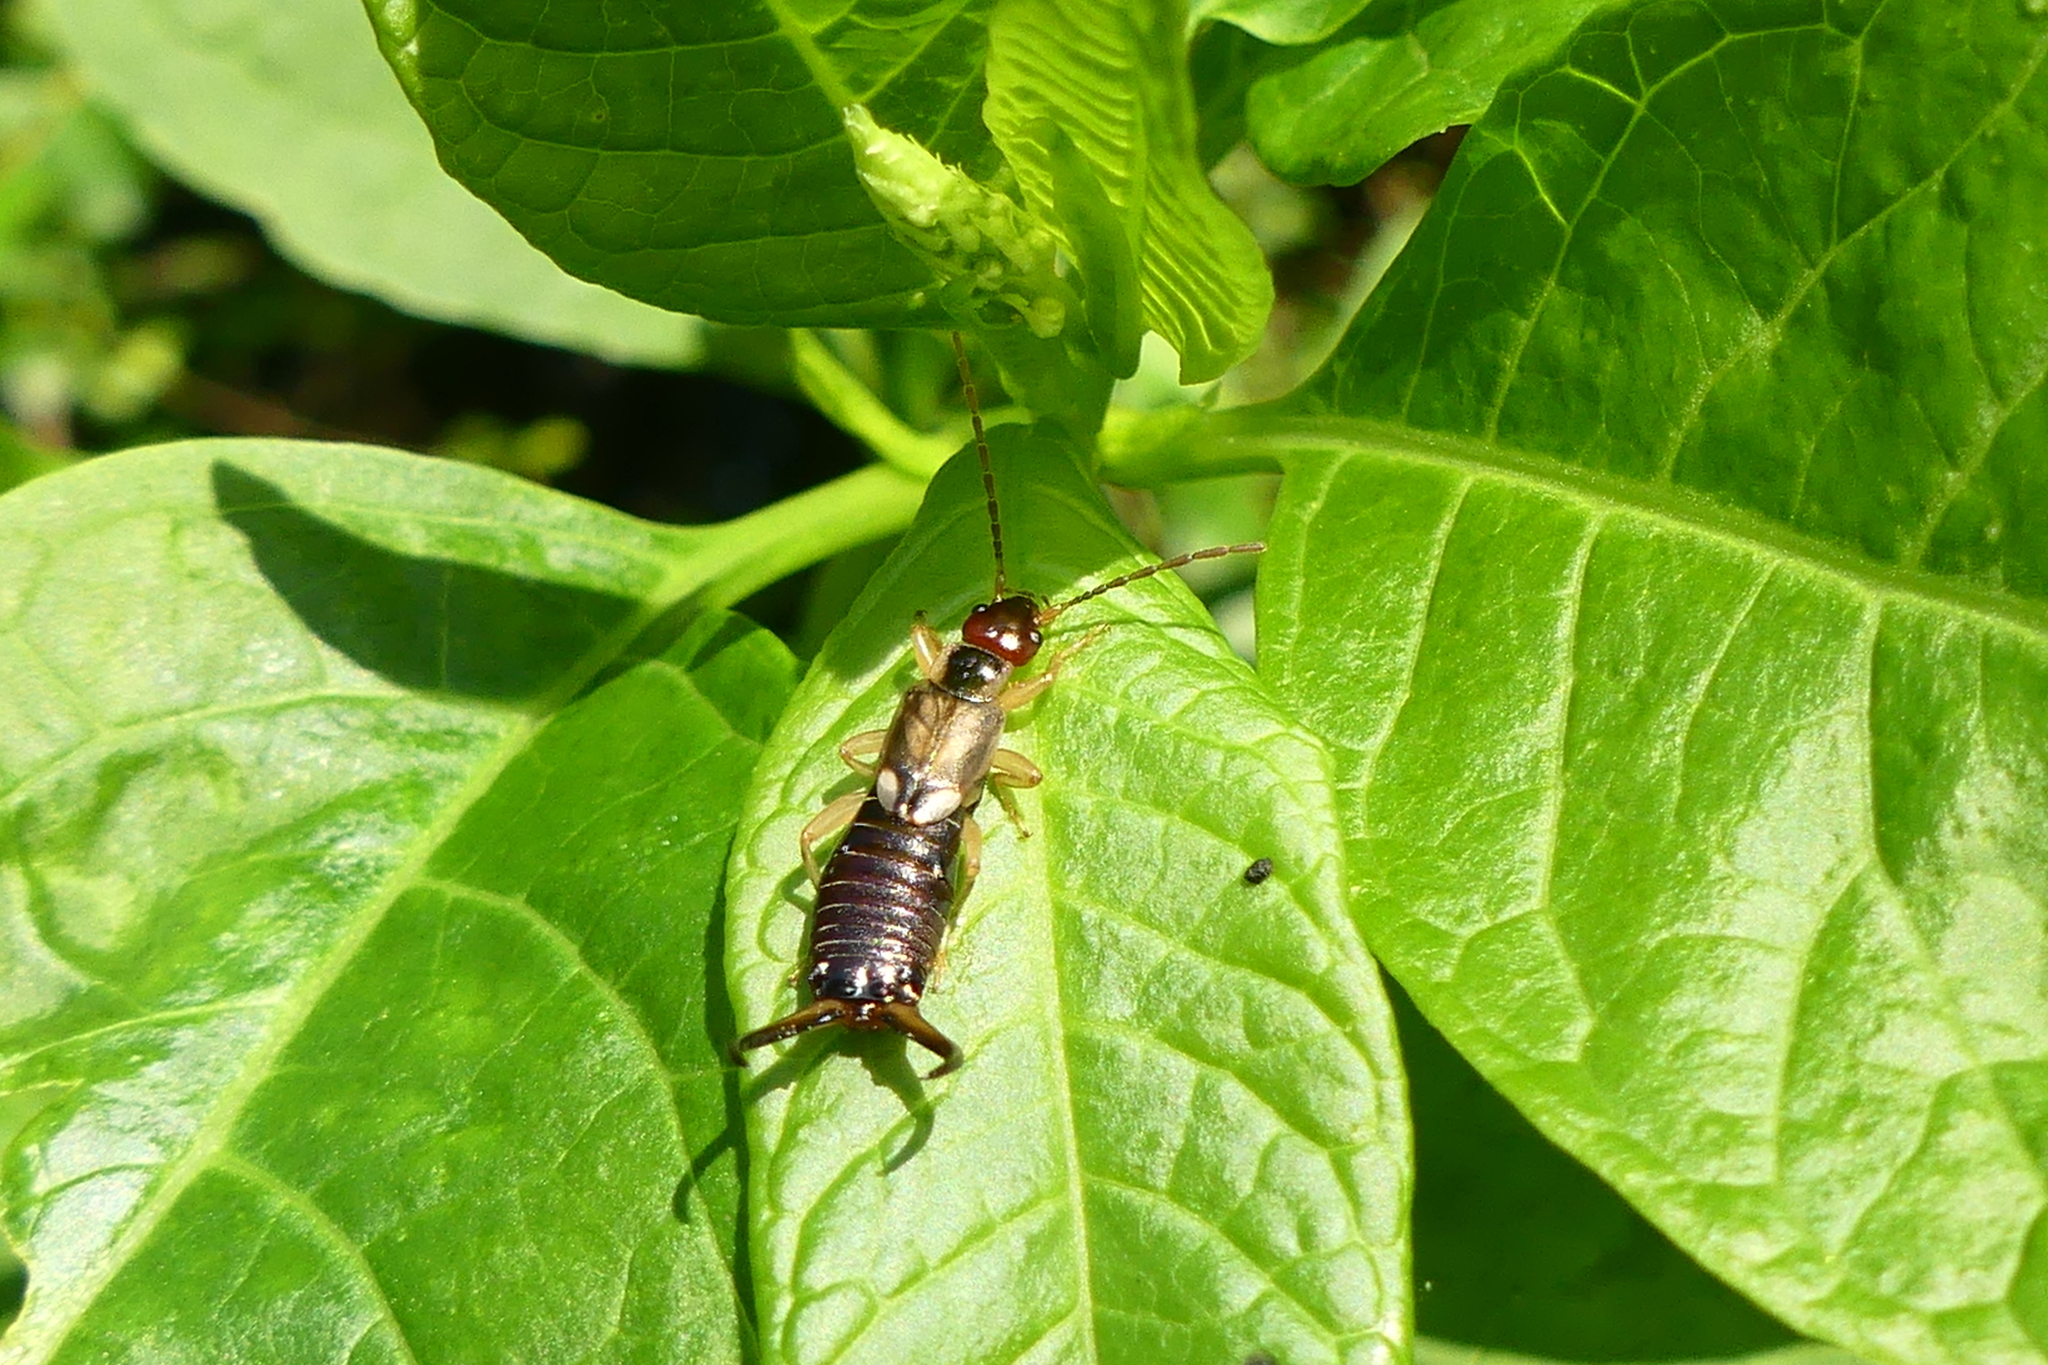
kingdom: Animalia
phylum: Arthropoda
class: Insecta
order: Dermaptera
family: Forficulidae
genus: Forficula
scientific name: Forficula
